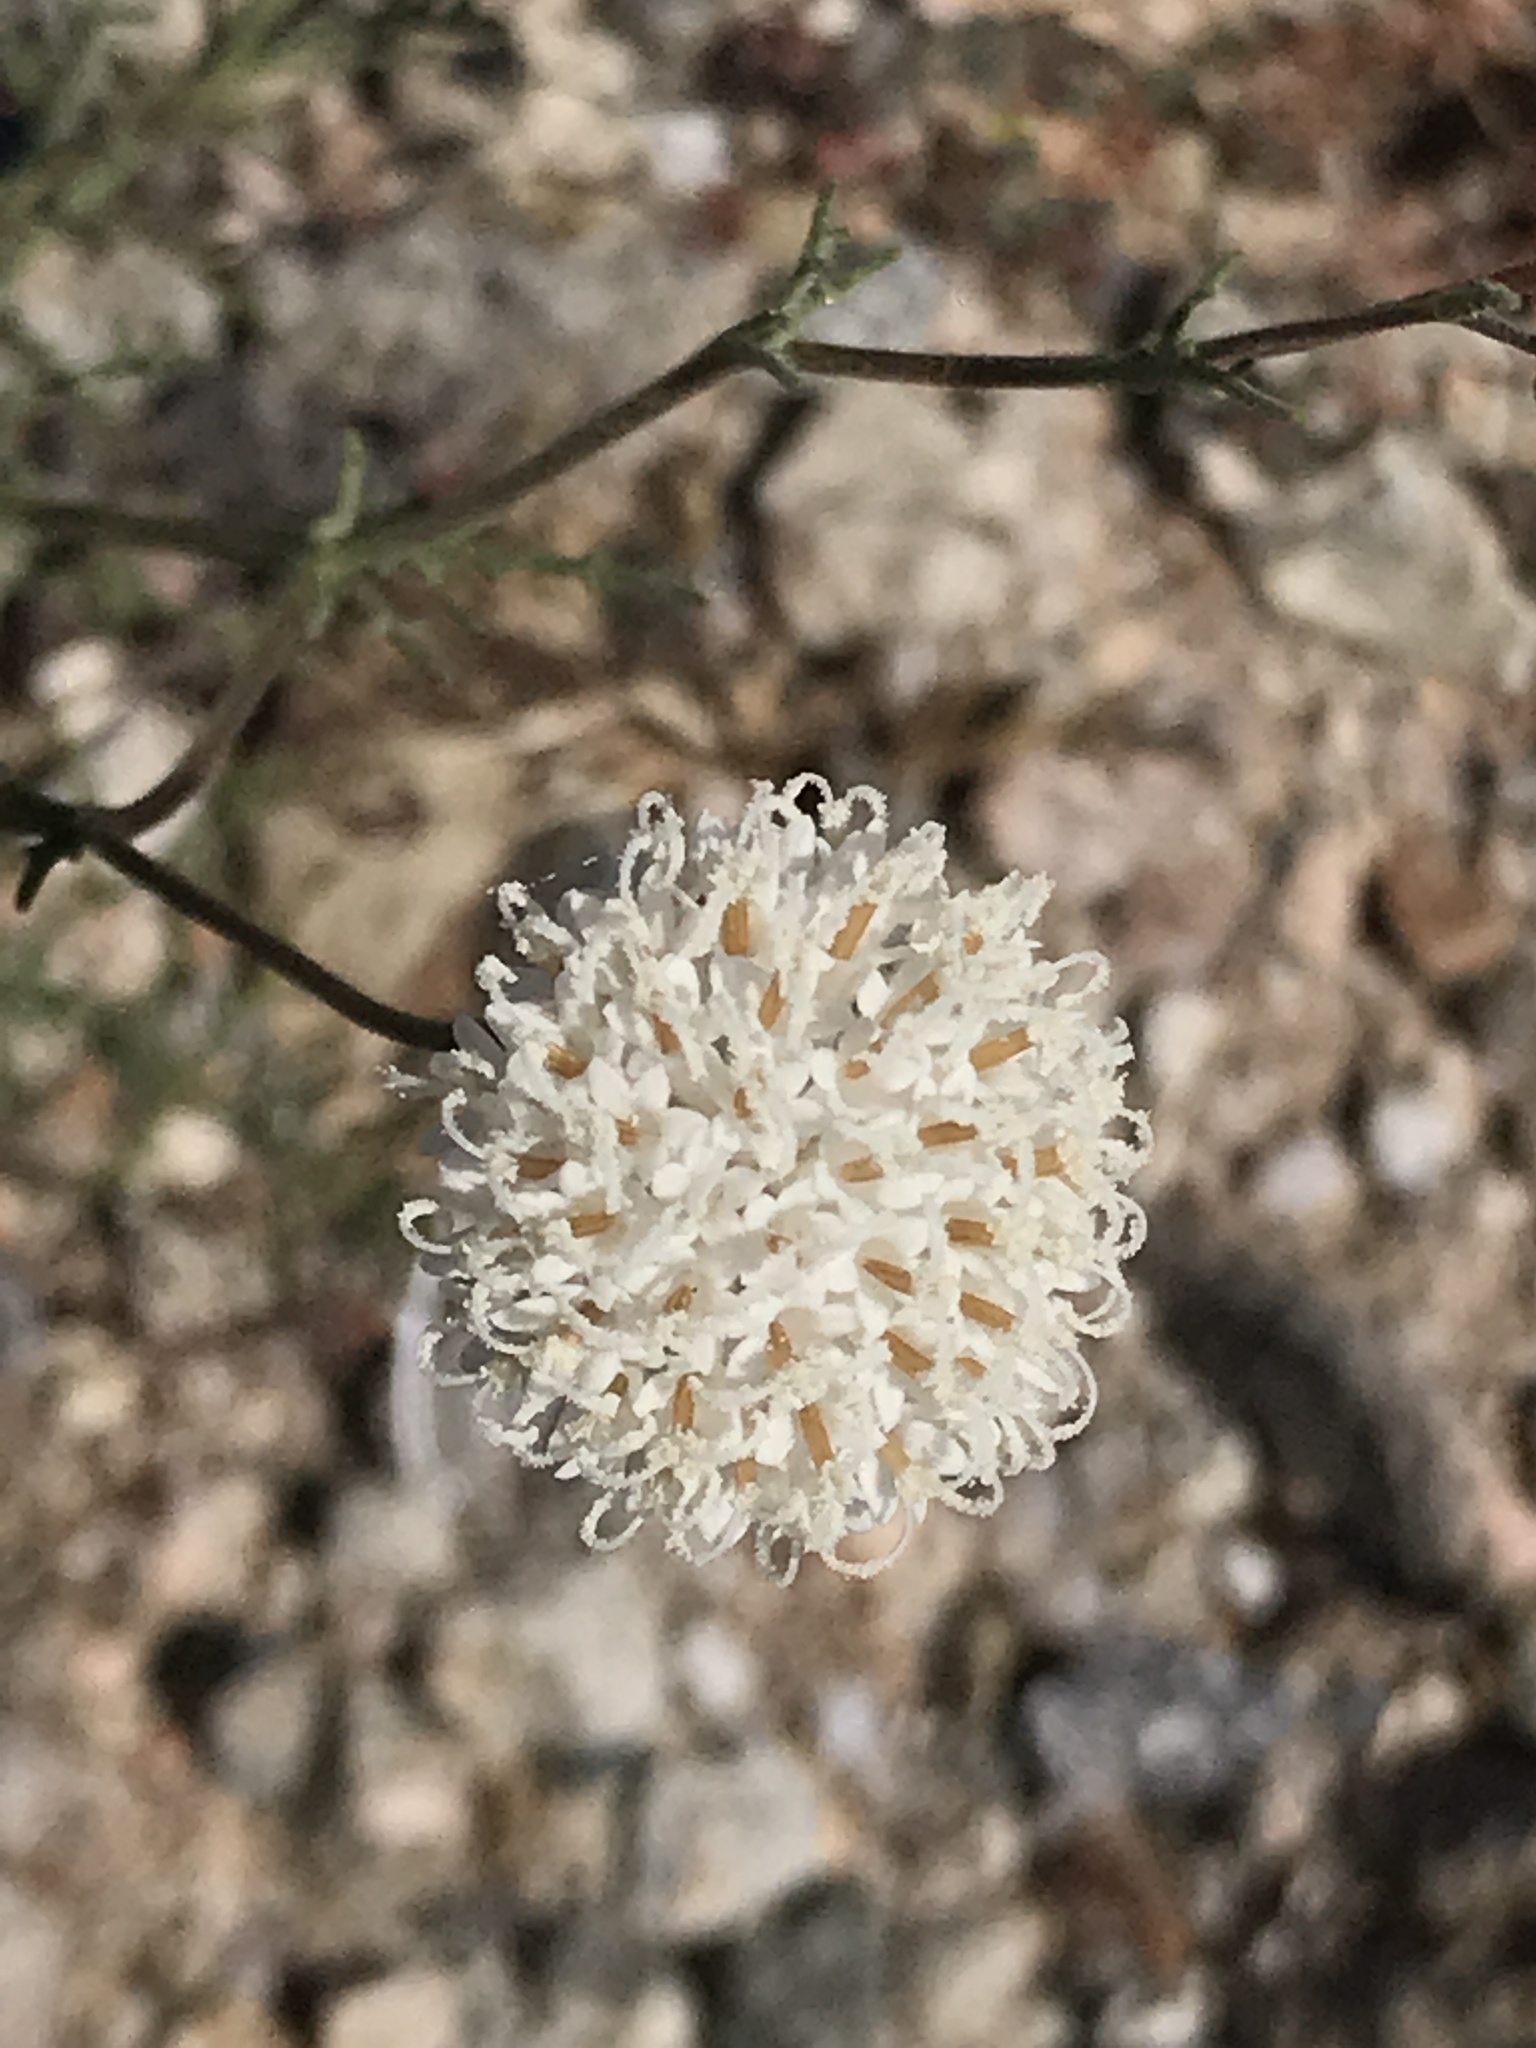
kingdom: Plantae
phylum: Tracheophyta
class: Magnoliopsida
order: Asterales
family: Asteraceae
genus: Chaenactis
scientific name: Chaenactis carphoclinia
